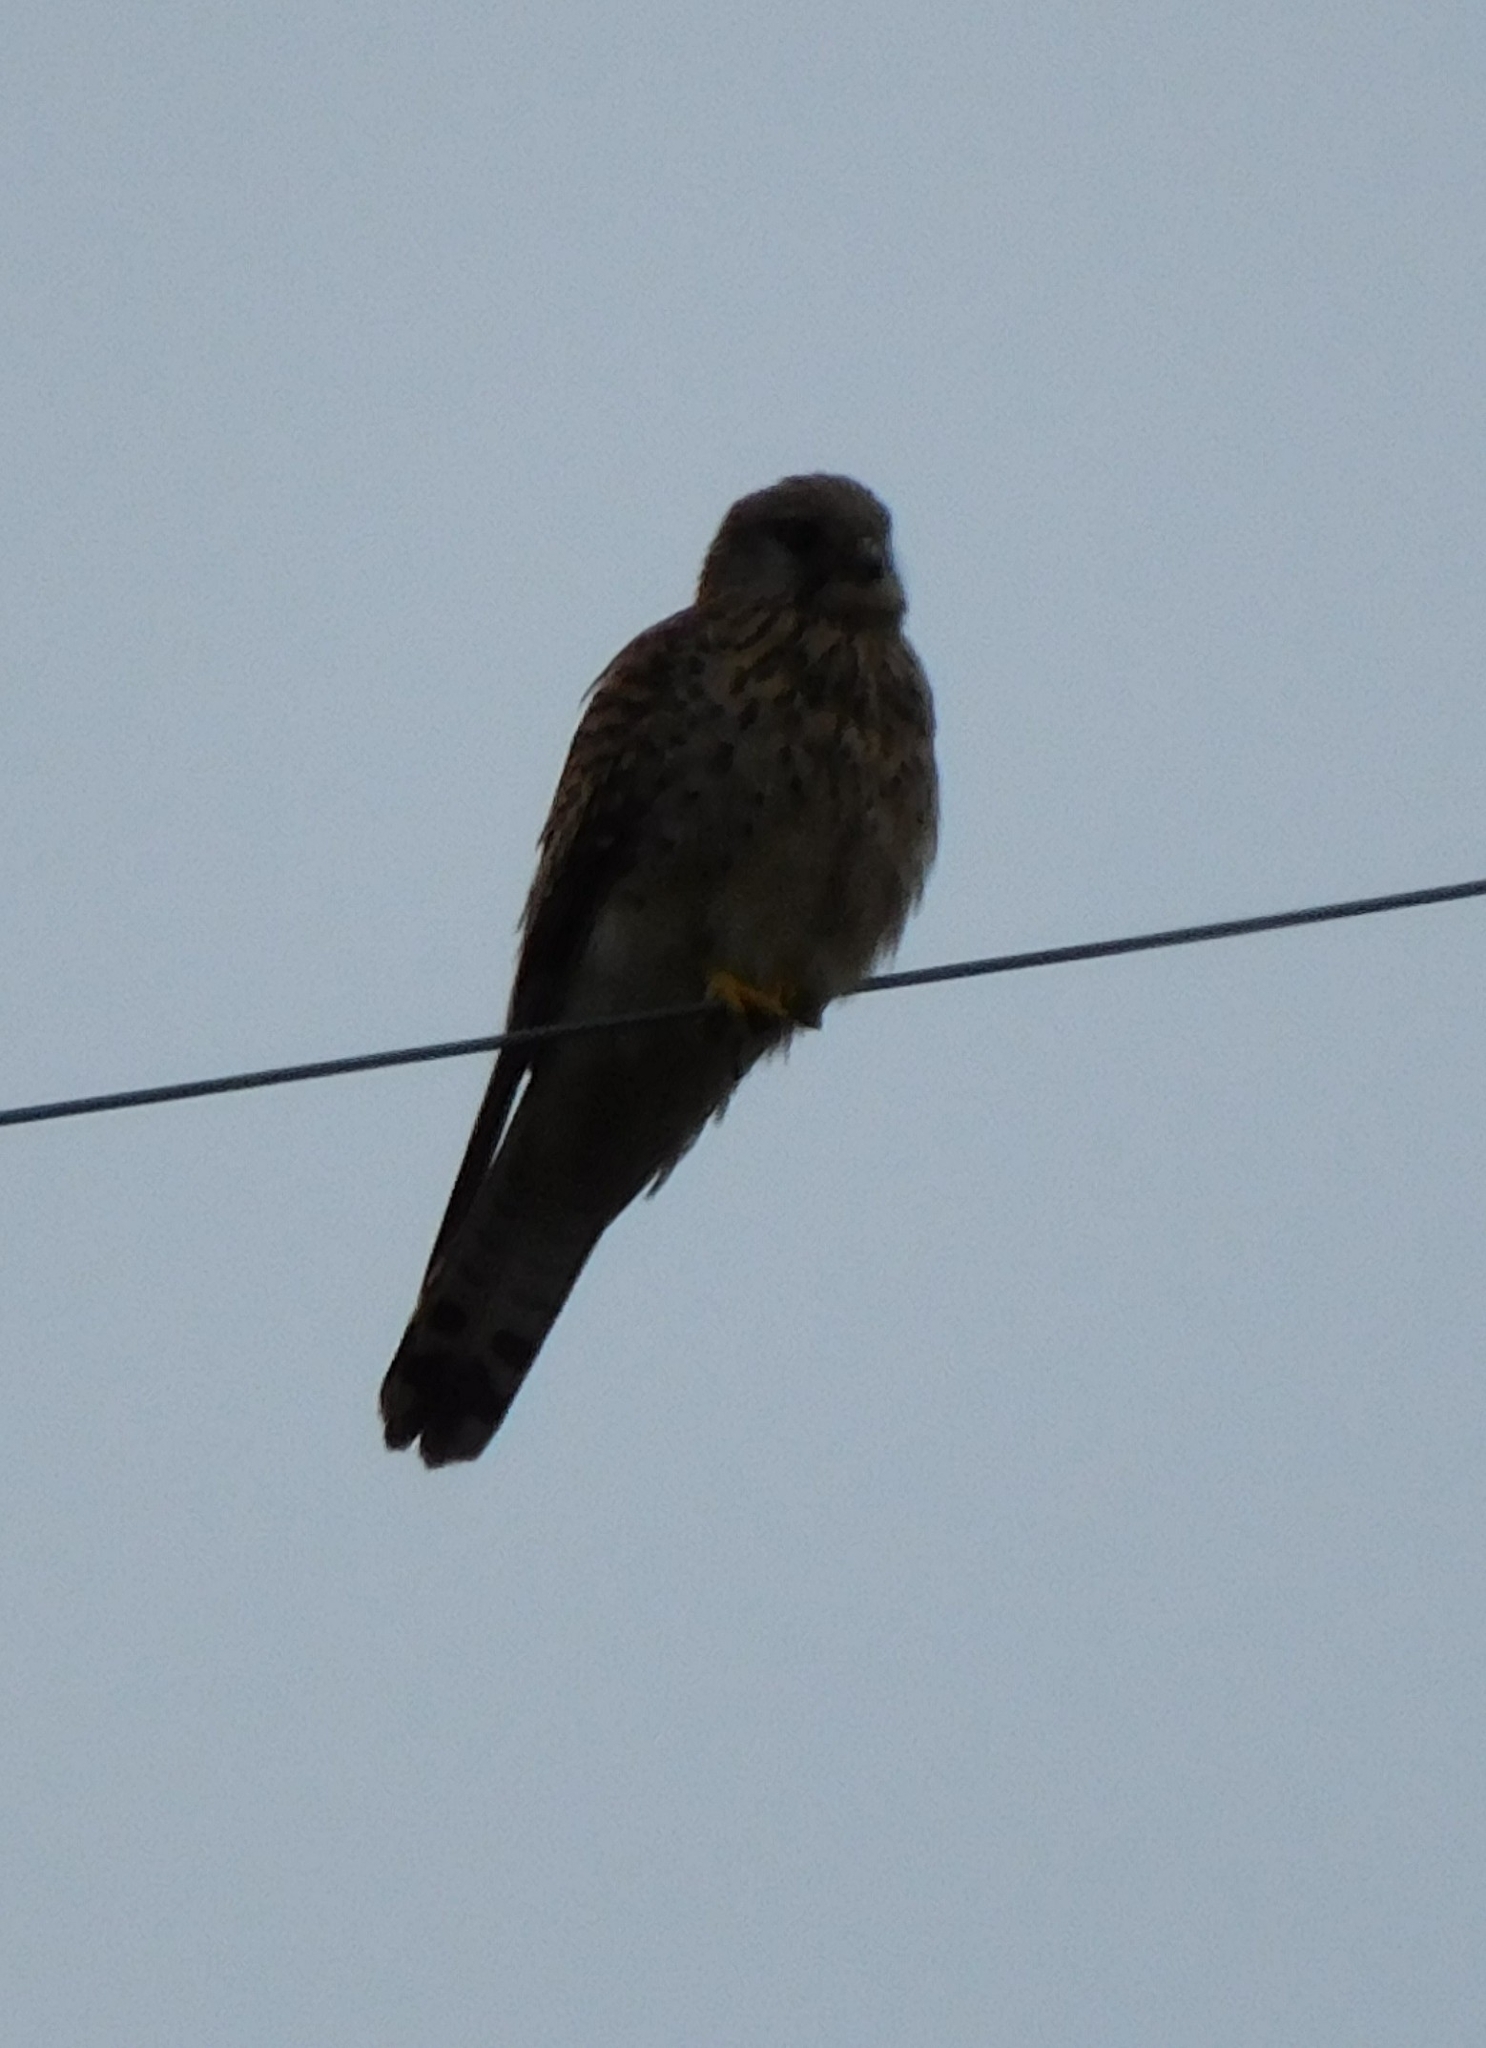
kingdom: Animalia
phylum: Chordata
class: Aves
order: Falconiformes
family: Falconidae
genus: Falco
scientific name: Falco tinnunculus
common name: Common kestrel
